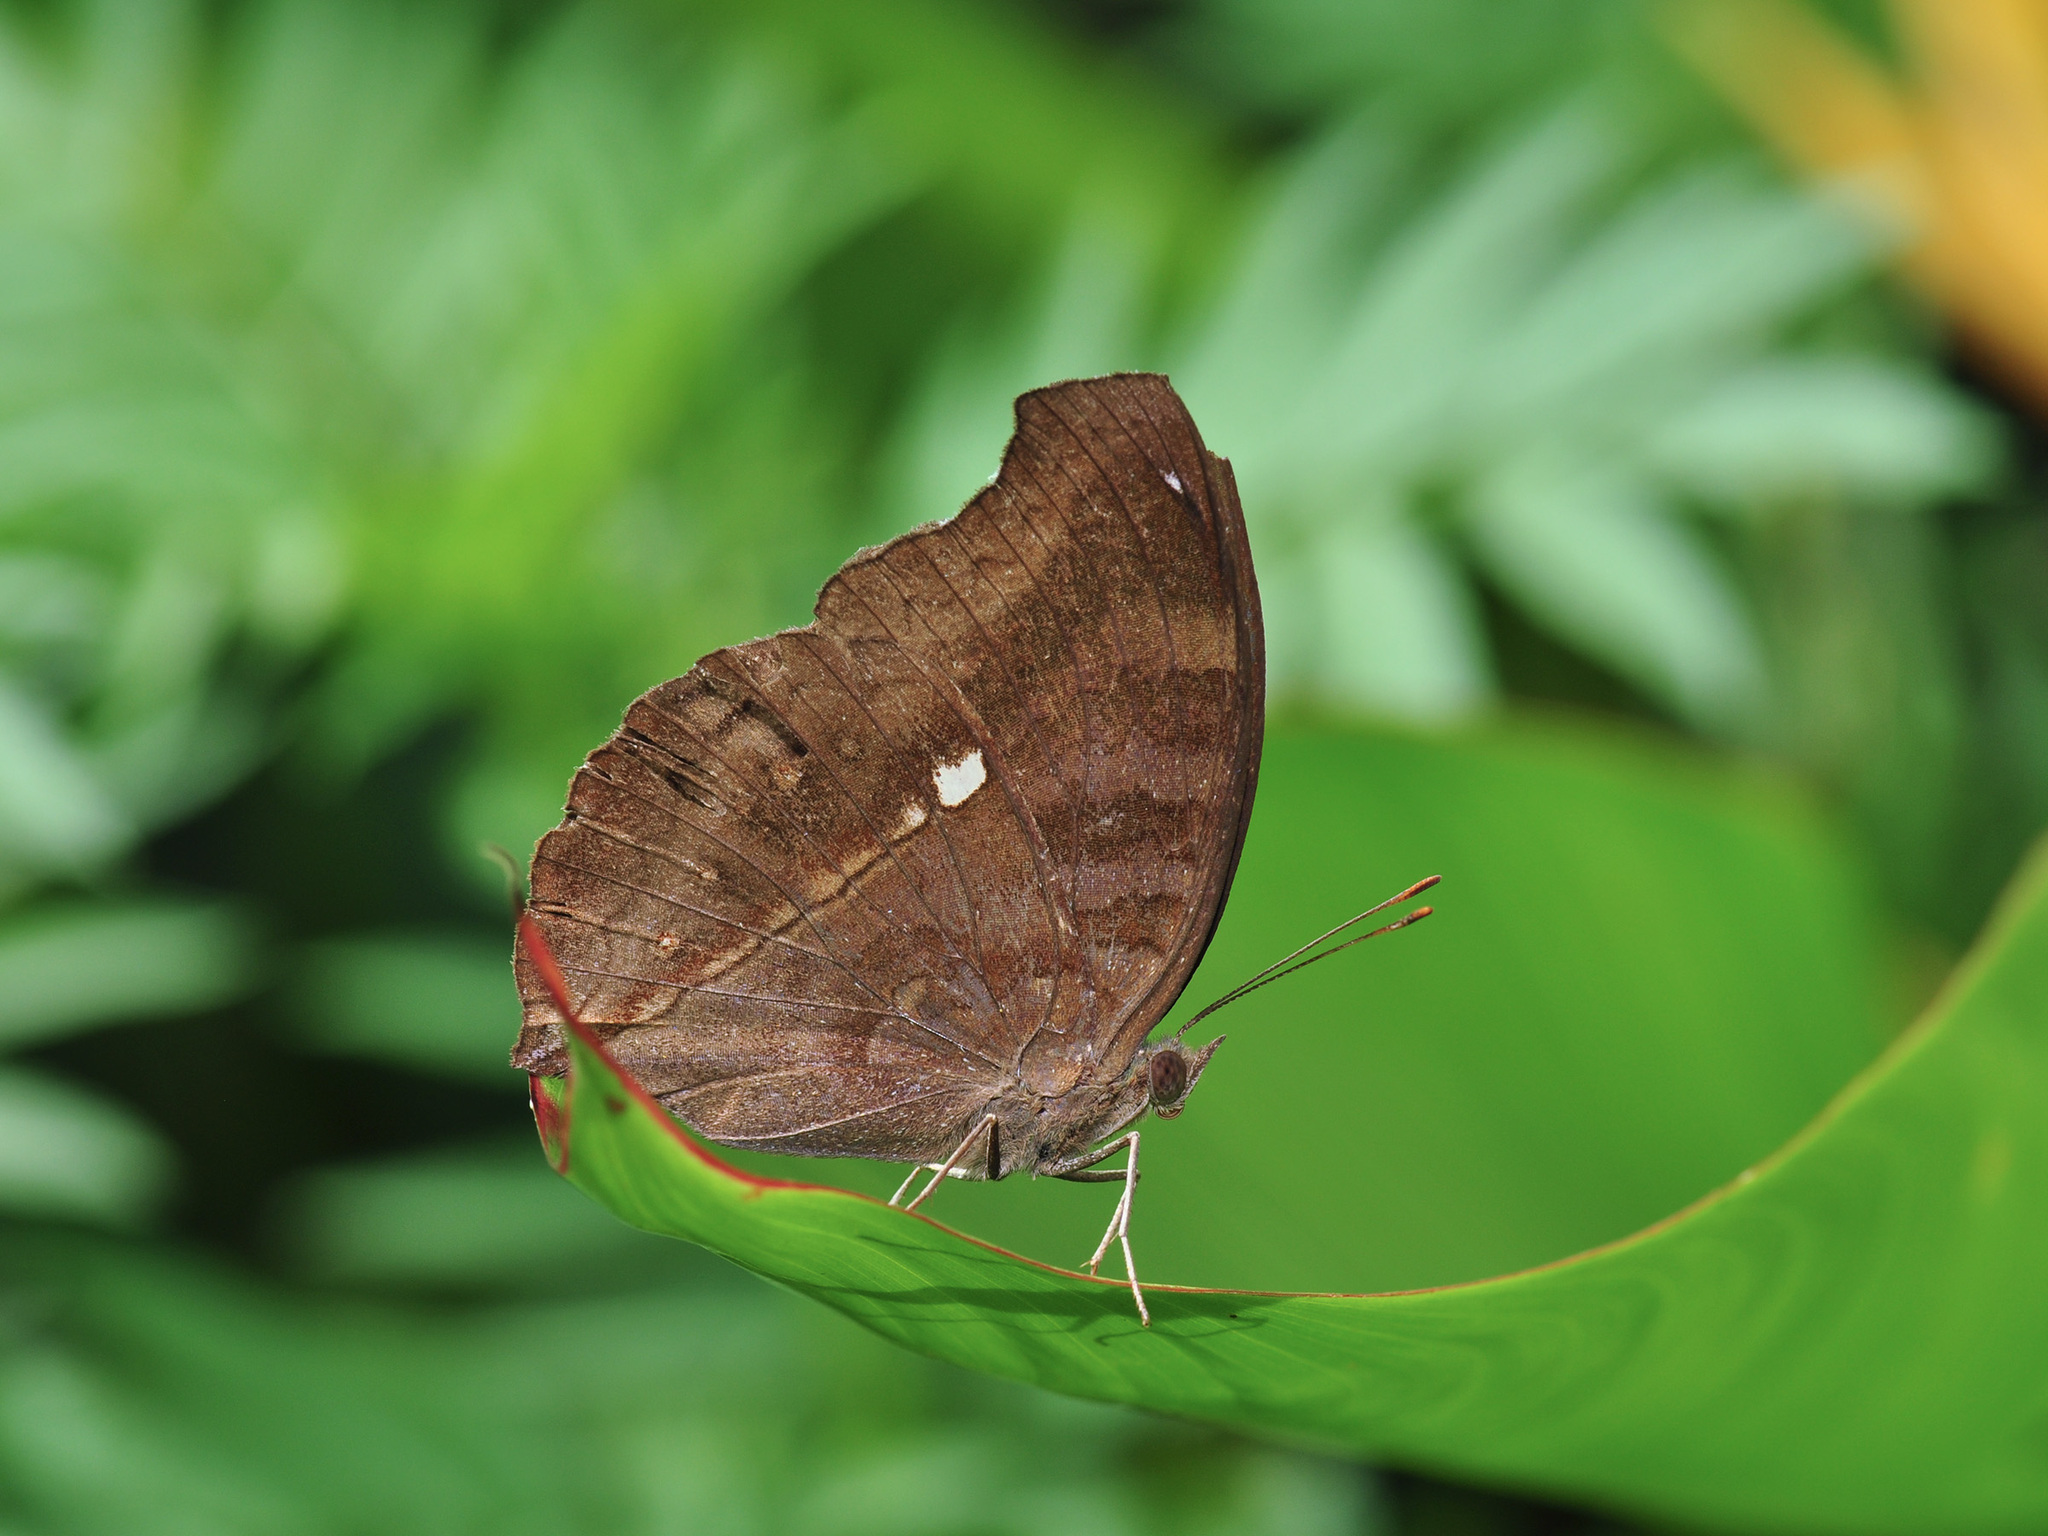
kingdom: Animalia
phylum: Arthropoda
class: Insecta
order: Lepidoptera
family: Nymphalidae
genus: Junonia
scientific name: Junonia iphita
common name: Chocolate pansy
